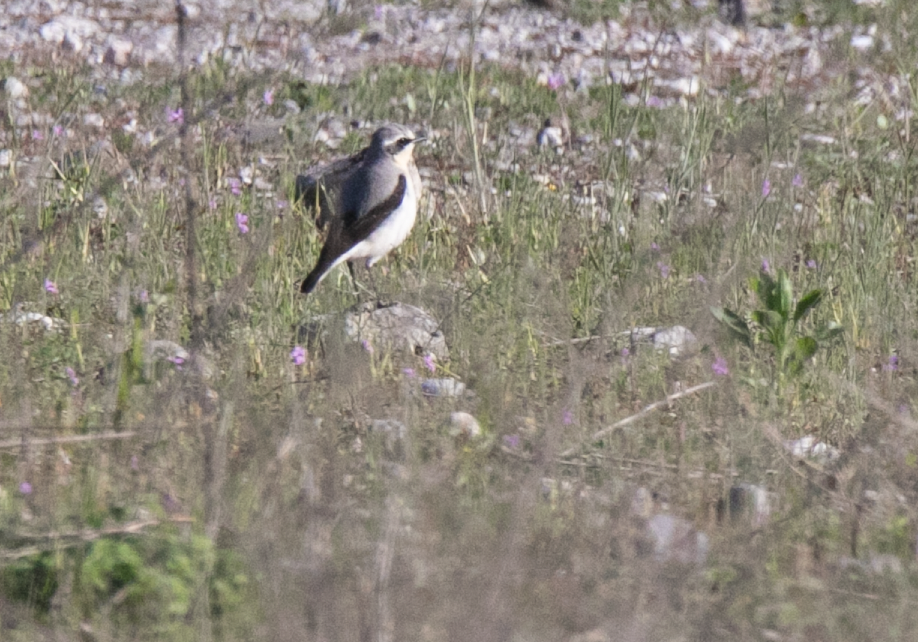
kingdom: Animalia
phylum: Chordata
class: Aves
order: Passeriformes
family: Muscicapidae
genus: Oenanthe
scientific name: Oenanthe oenanthe
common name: Northern wheatear
